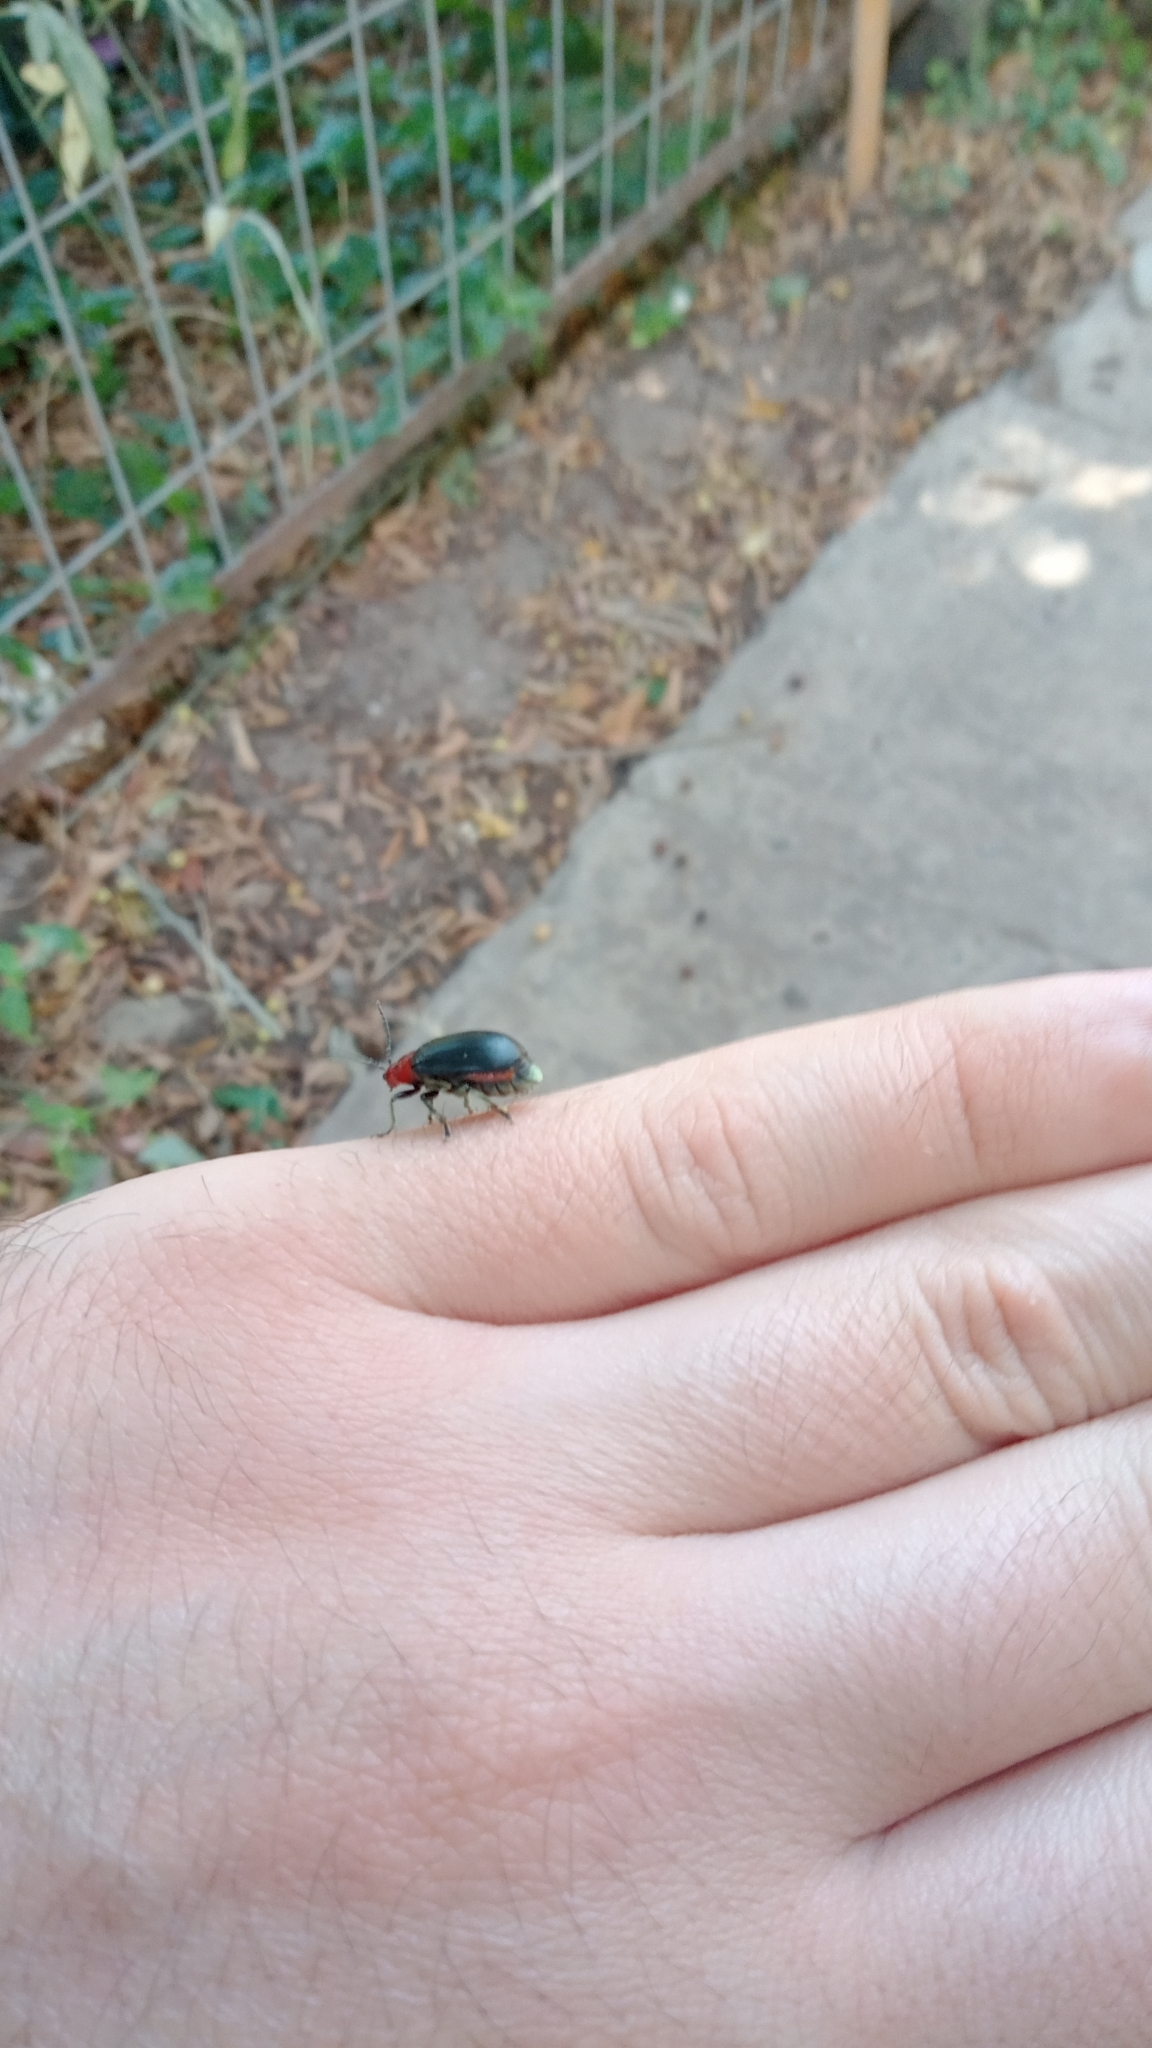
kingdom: Animalia
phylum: Arthropoda
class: Insecta
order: Coleoptera
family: Chrysomelidae
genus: Cacoscelis
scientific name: Cacoscelis
